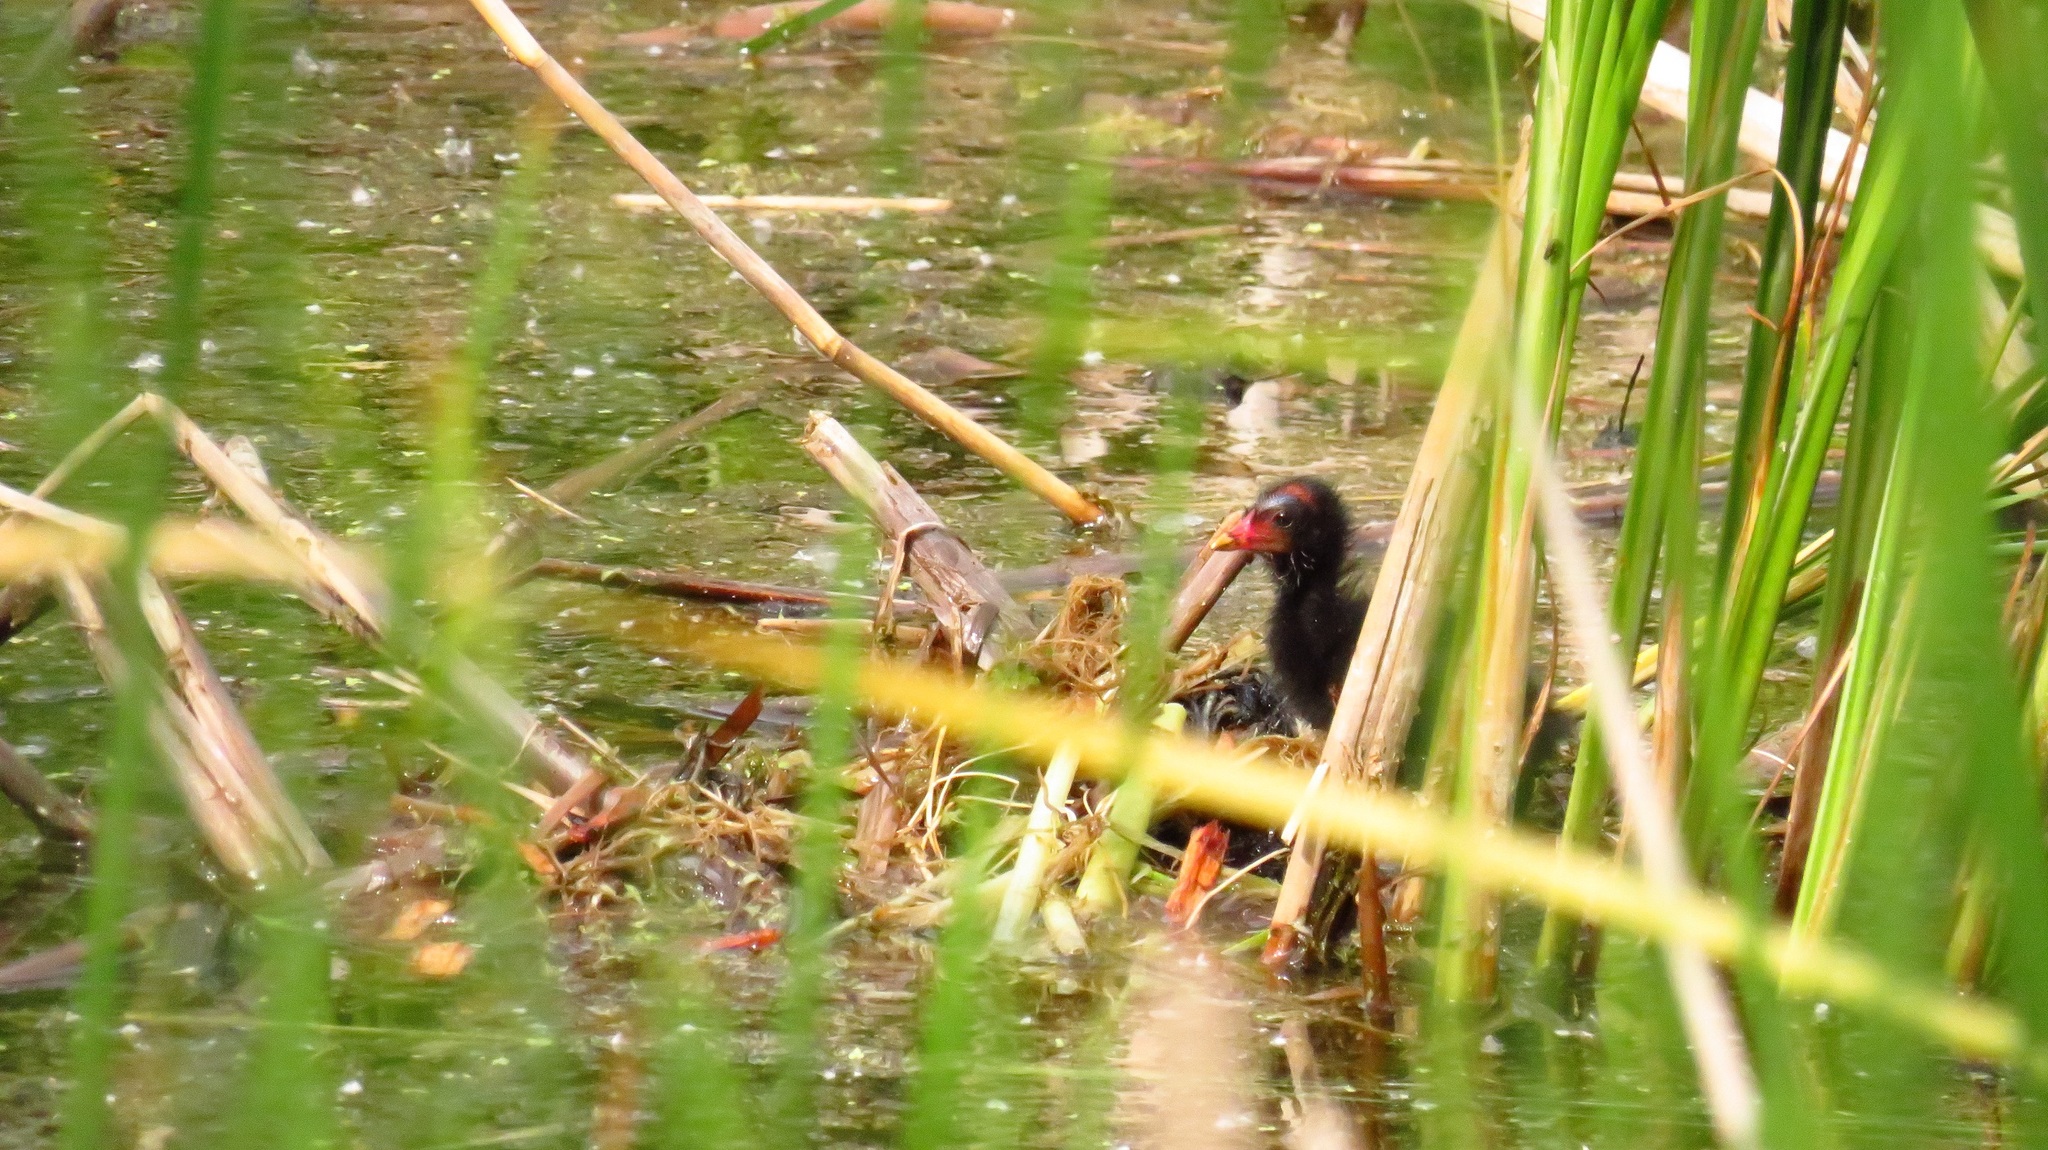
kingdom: Animalia
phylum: Chordata
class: Aves
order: Gruiformes
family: Rallidae
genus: Gallinula
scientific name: Gallinula chloropus
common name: Common moorhen
